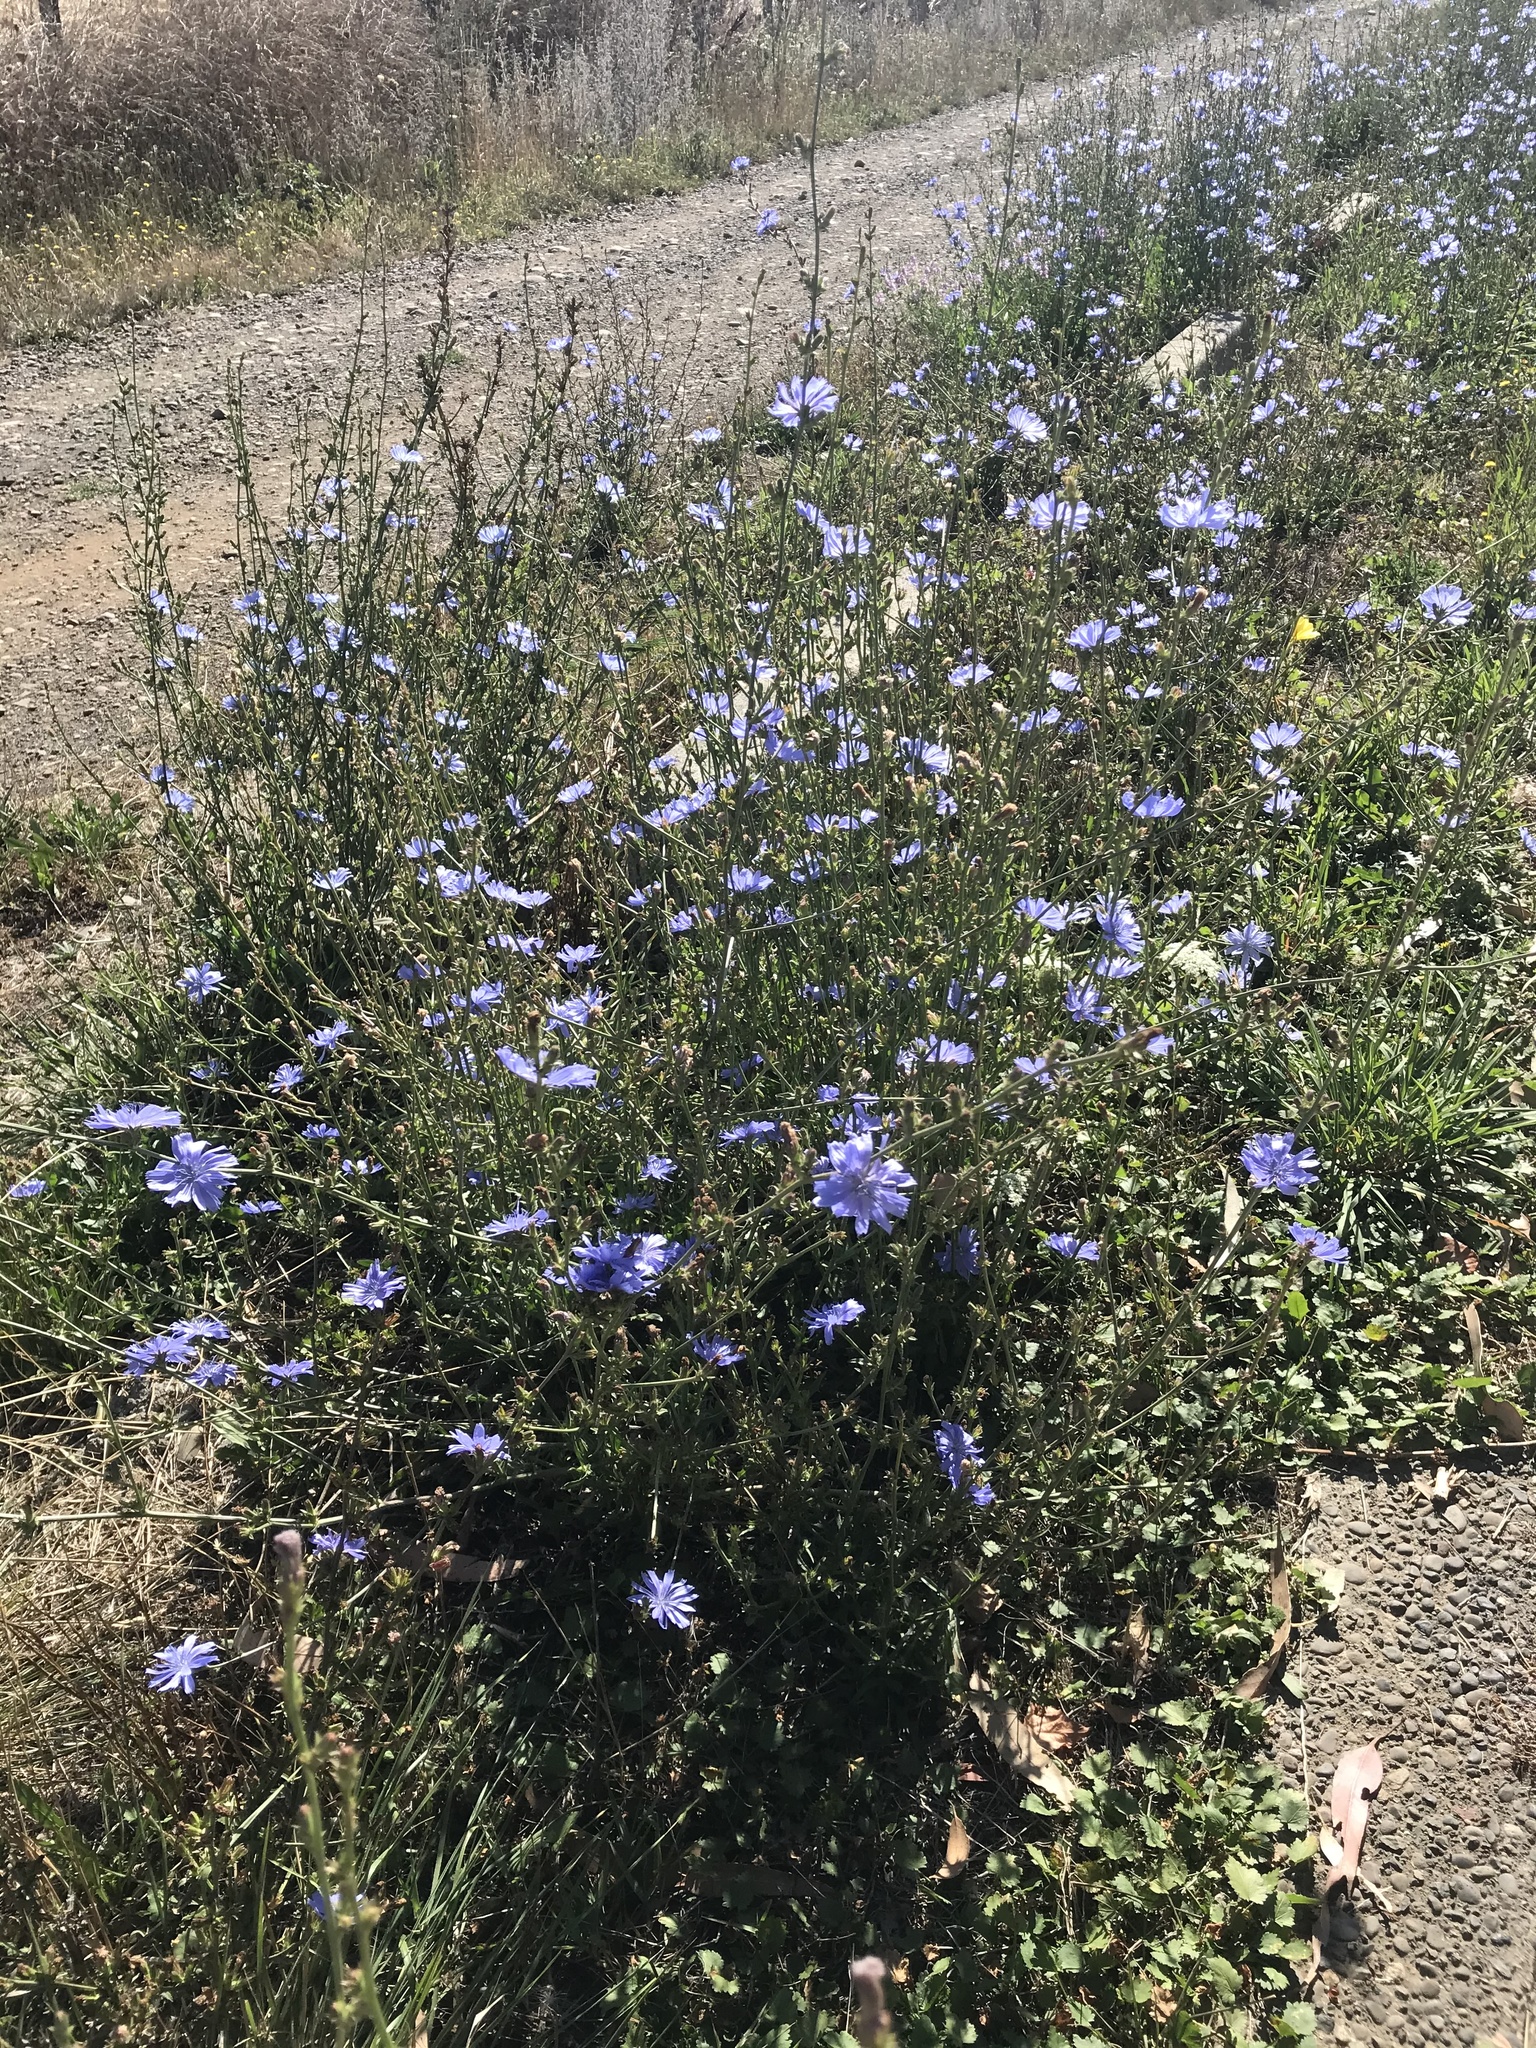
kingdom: Plantae
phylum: Tracheophyta
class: Magnoliopsida
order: Asterales
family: Asteraceae
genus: Cichorium
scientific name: Cichorium intybus
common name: Chicory
